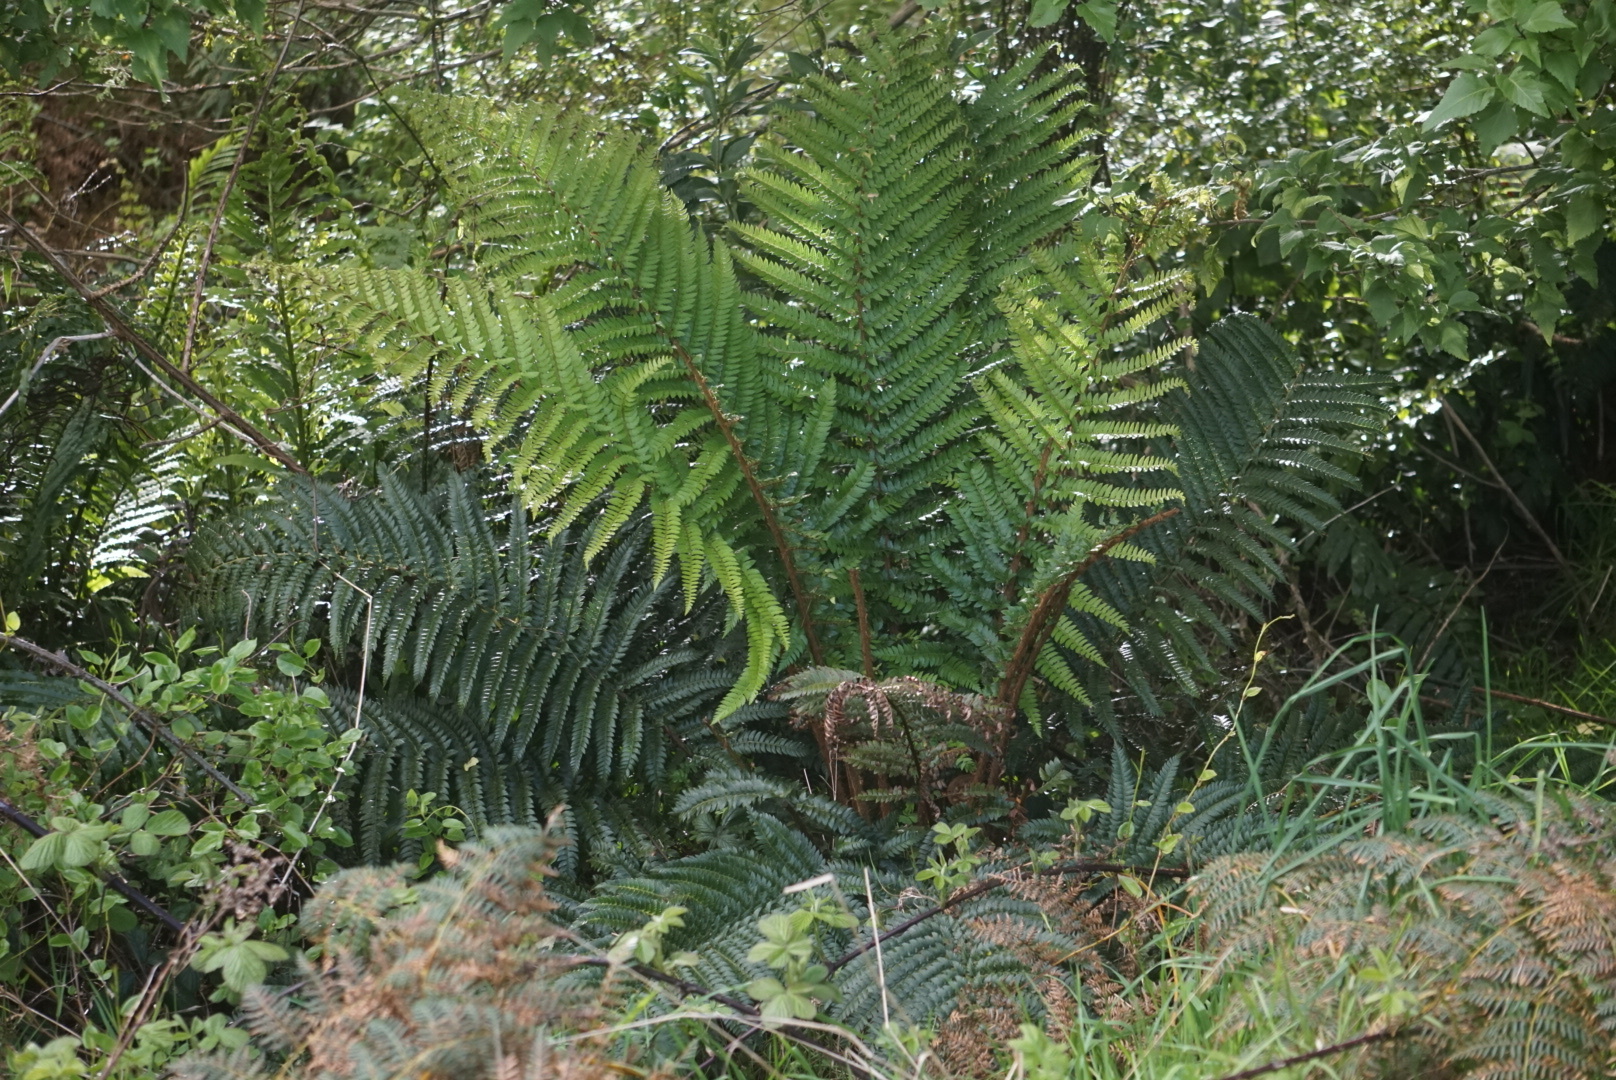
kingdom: Plantae
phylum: Tracheophyta
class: Polypodiopsida
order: Polypodiales
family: Dryopteridaceae
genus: Polystichum
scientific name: Polystichum vestitum
